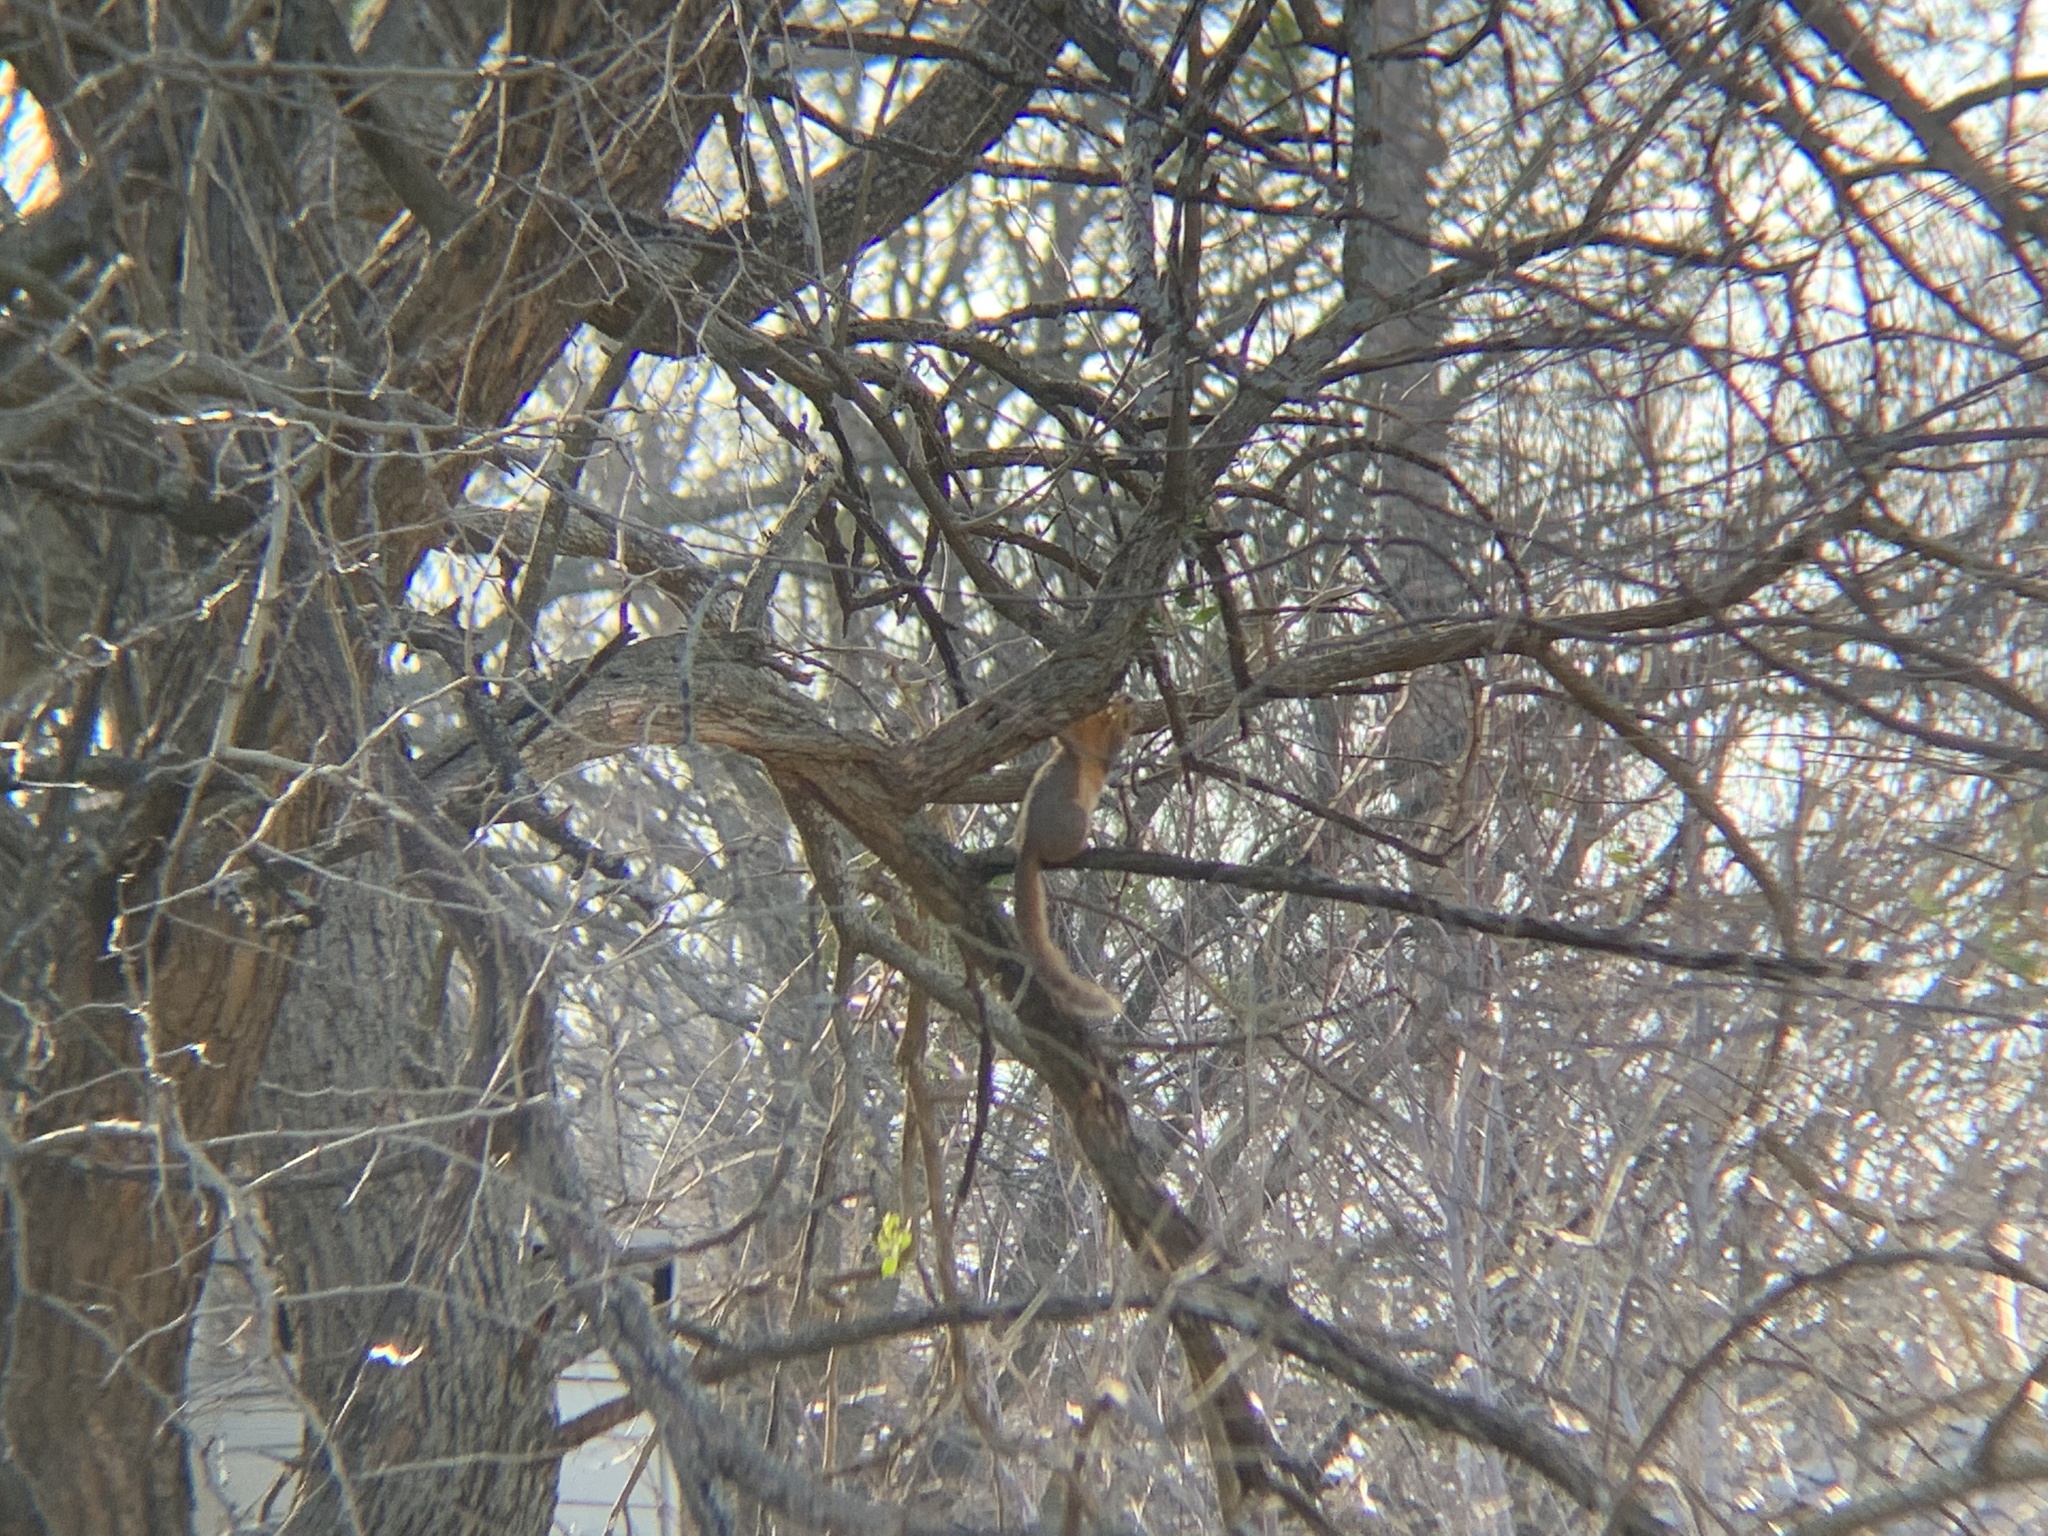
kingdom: Animalia
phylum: Chordata
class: Mammalia
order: Rodentia
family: Sciuridae
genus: Sciurus
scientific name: Sciurus niger
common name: Fox squirrel
